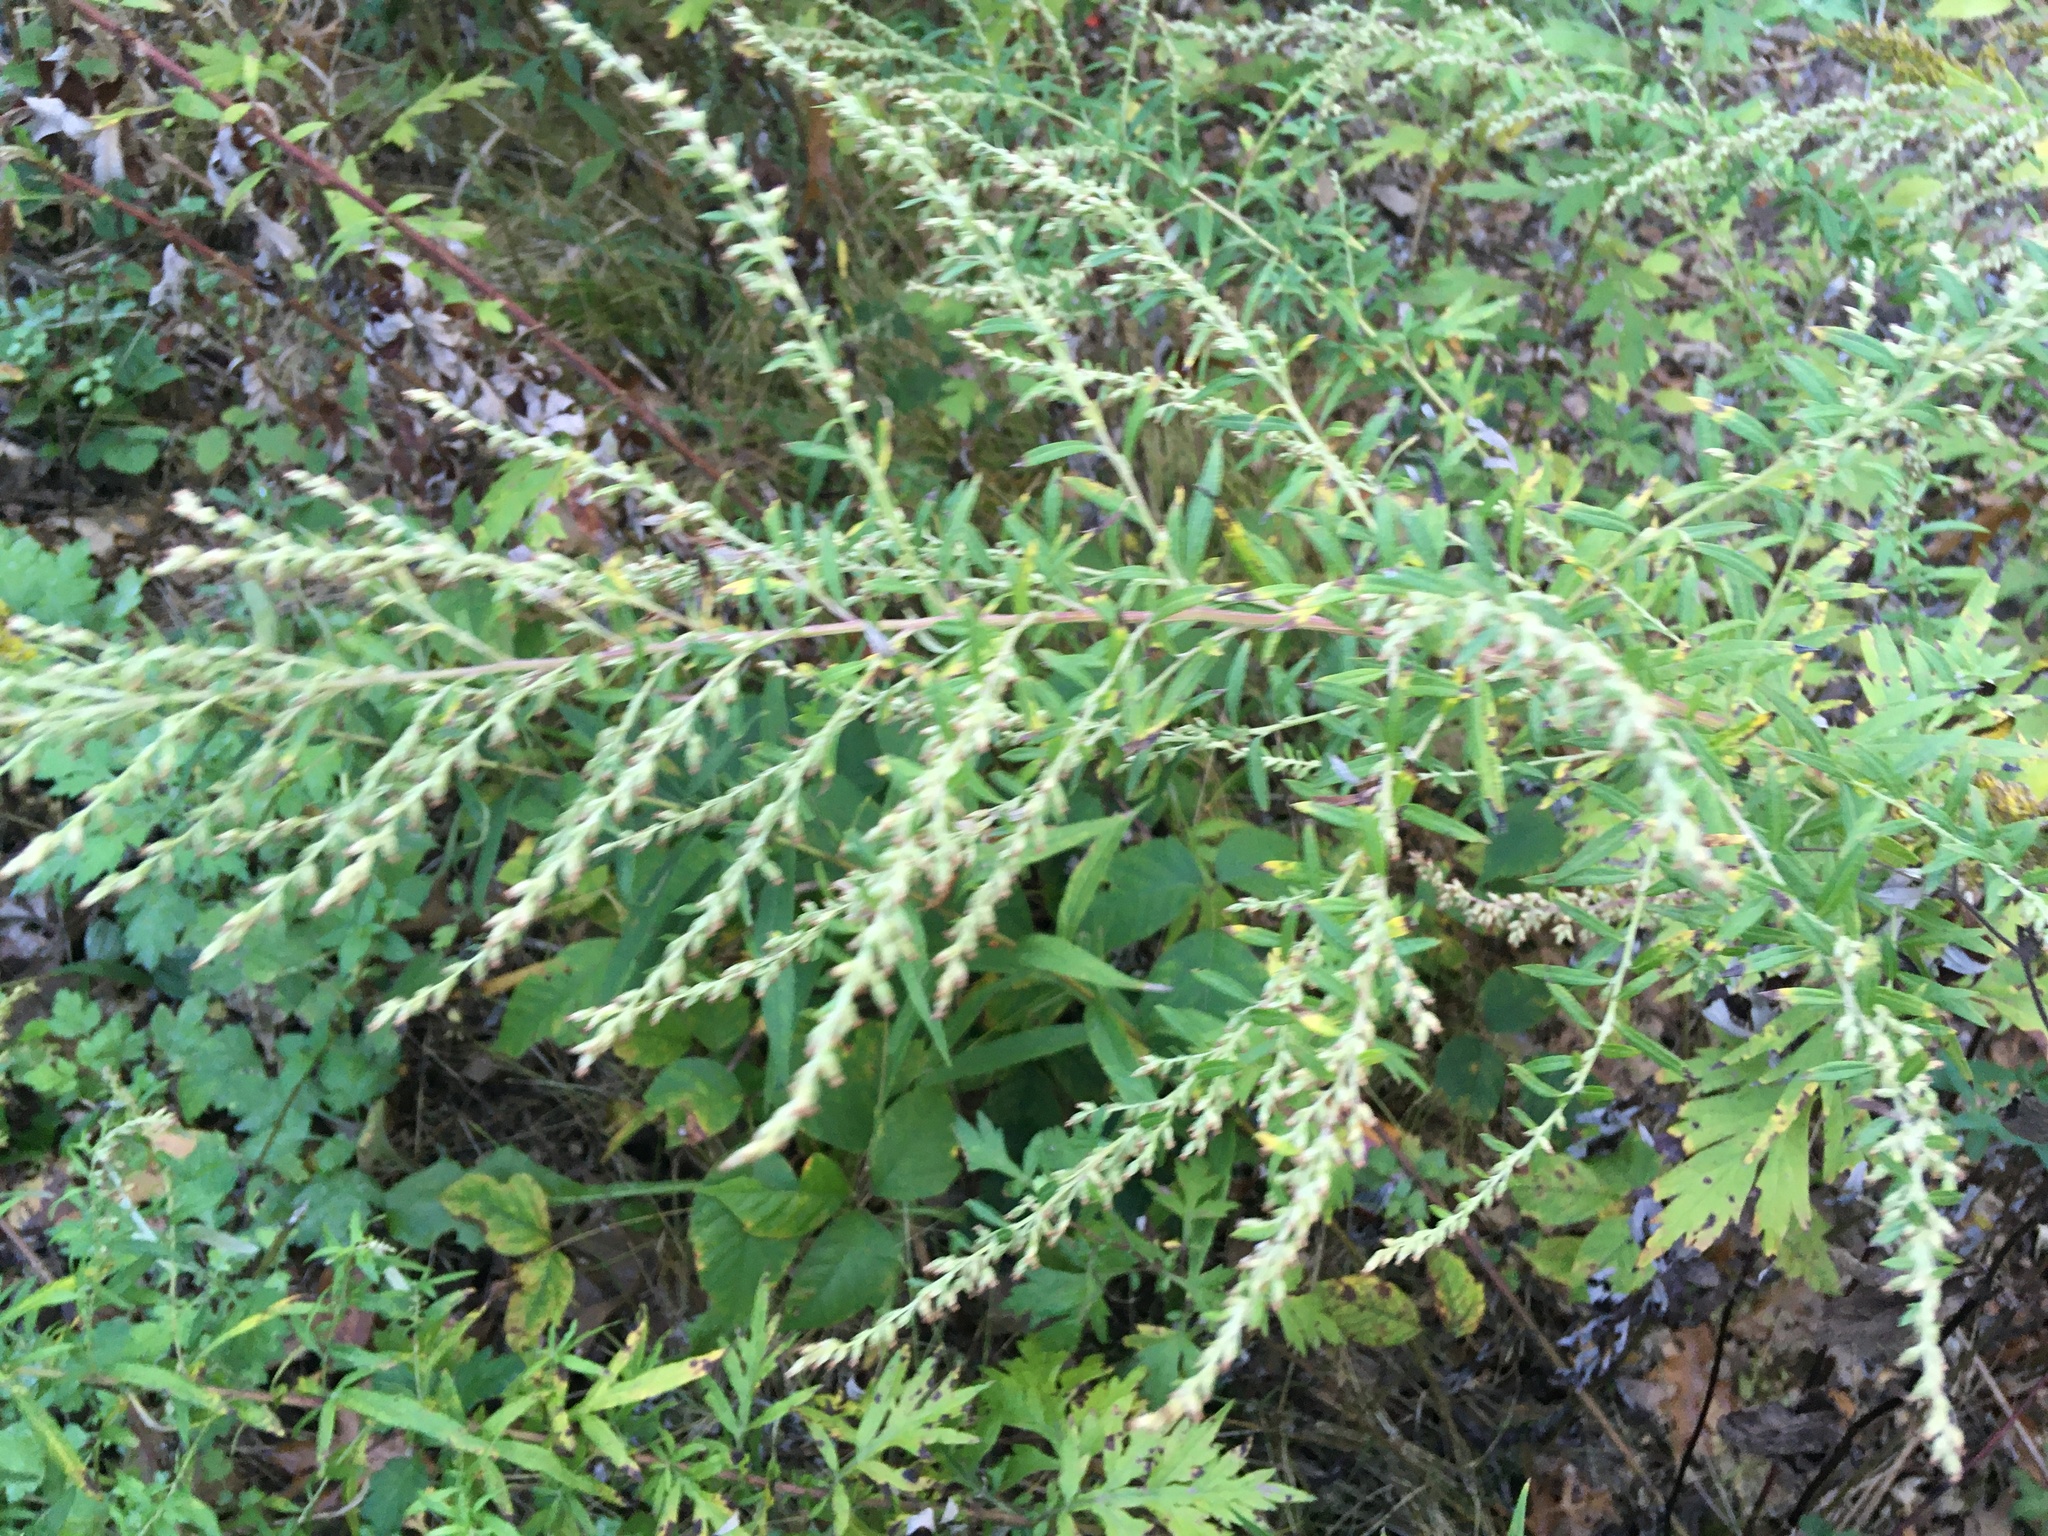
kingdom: Plantae
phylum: Tracheophyta
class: Magnoliopsida
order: Asterales
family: Asteraceae
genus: Artemisia
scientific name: Artemisia vulgaris
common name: Mugwort
